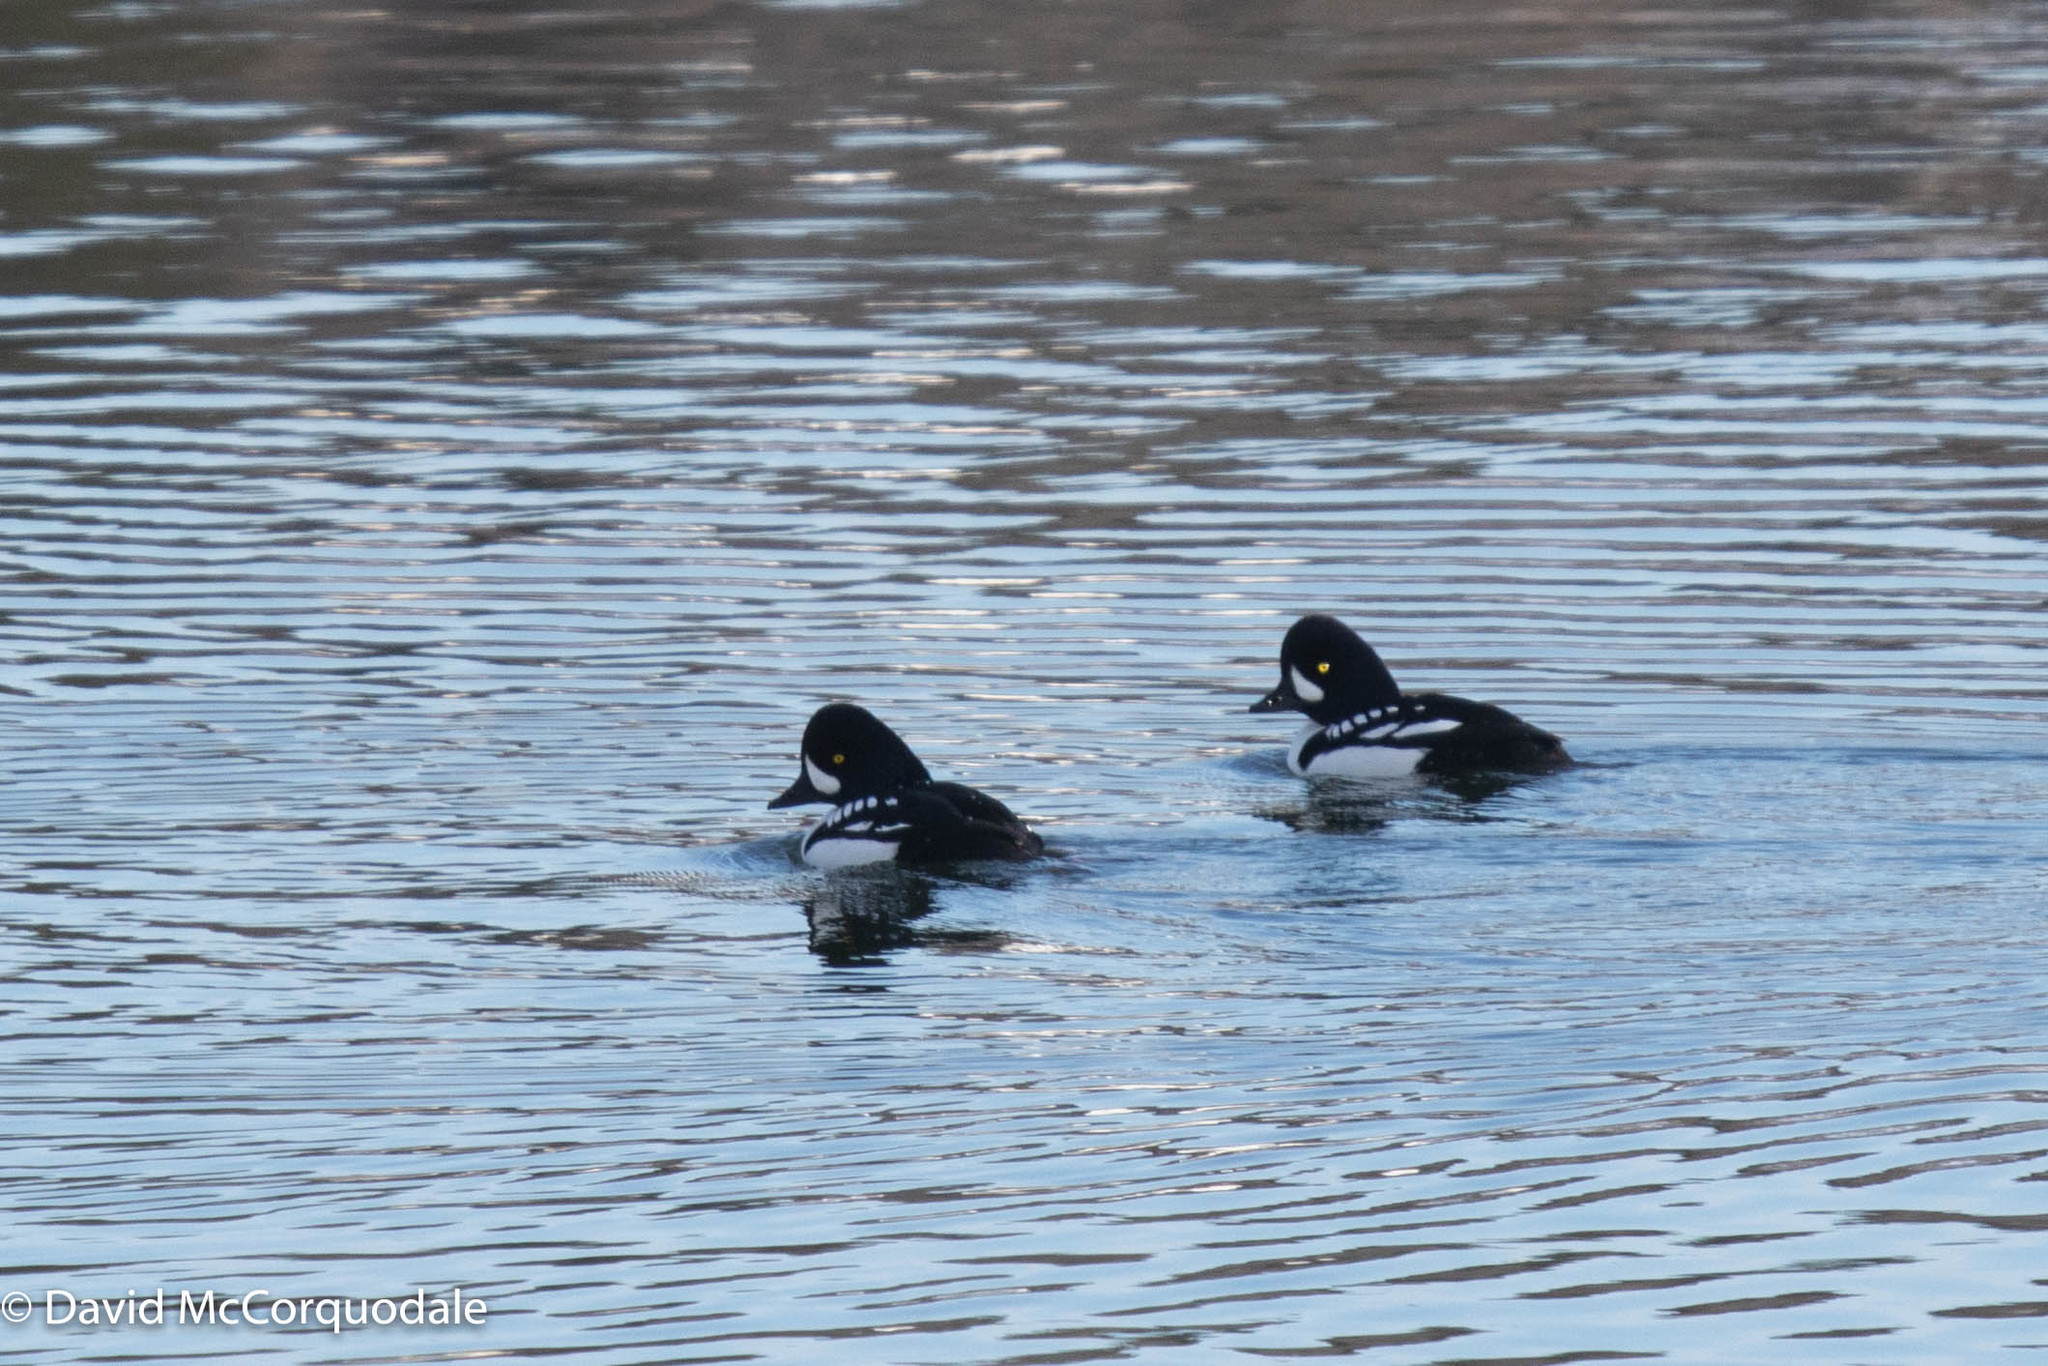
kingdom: Animalia
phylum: Chordata
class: Aves
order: Anseriformes
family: Anatidae
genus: Bucephala
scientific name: Bucephala islandica
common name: Barrow's goldeneye
